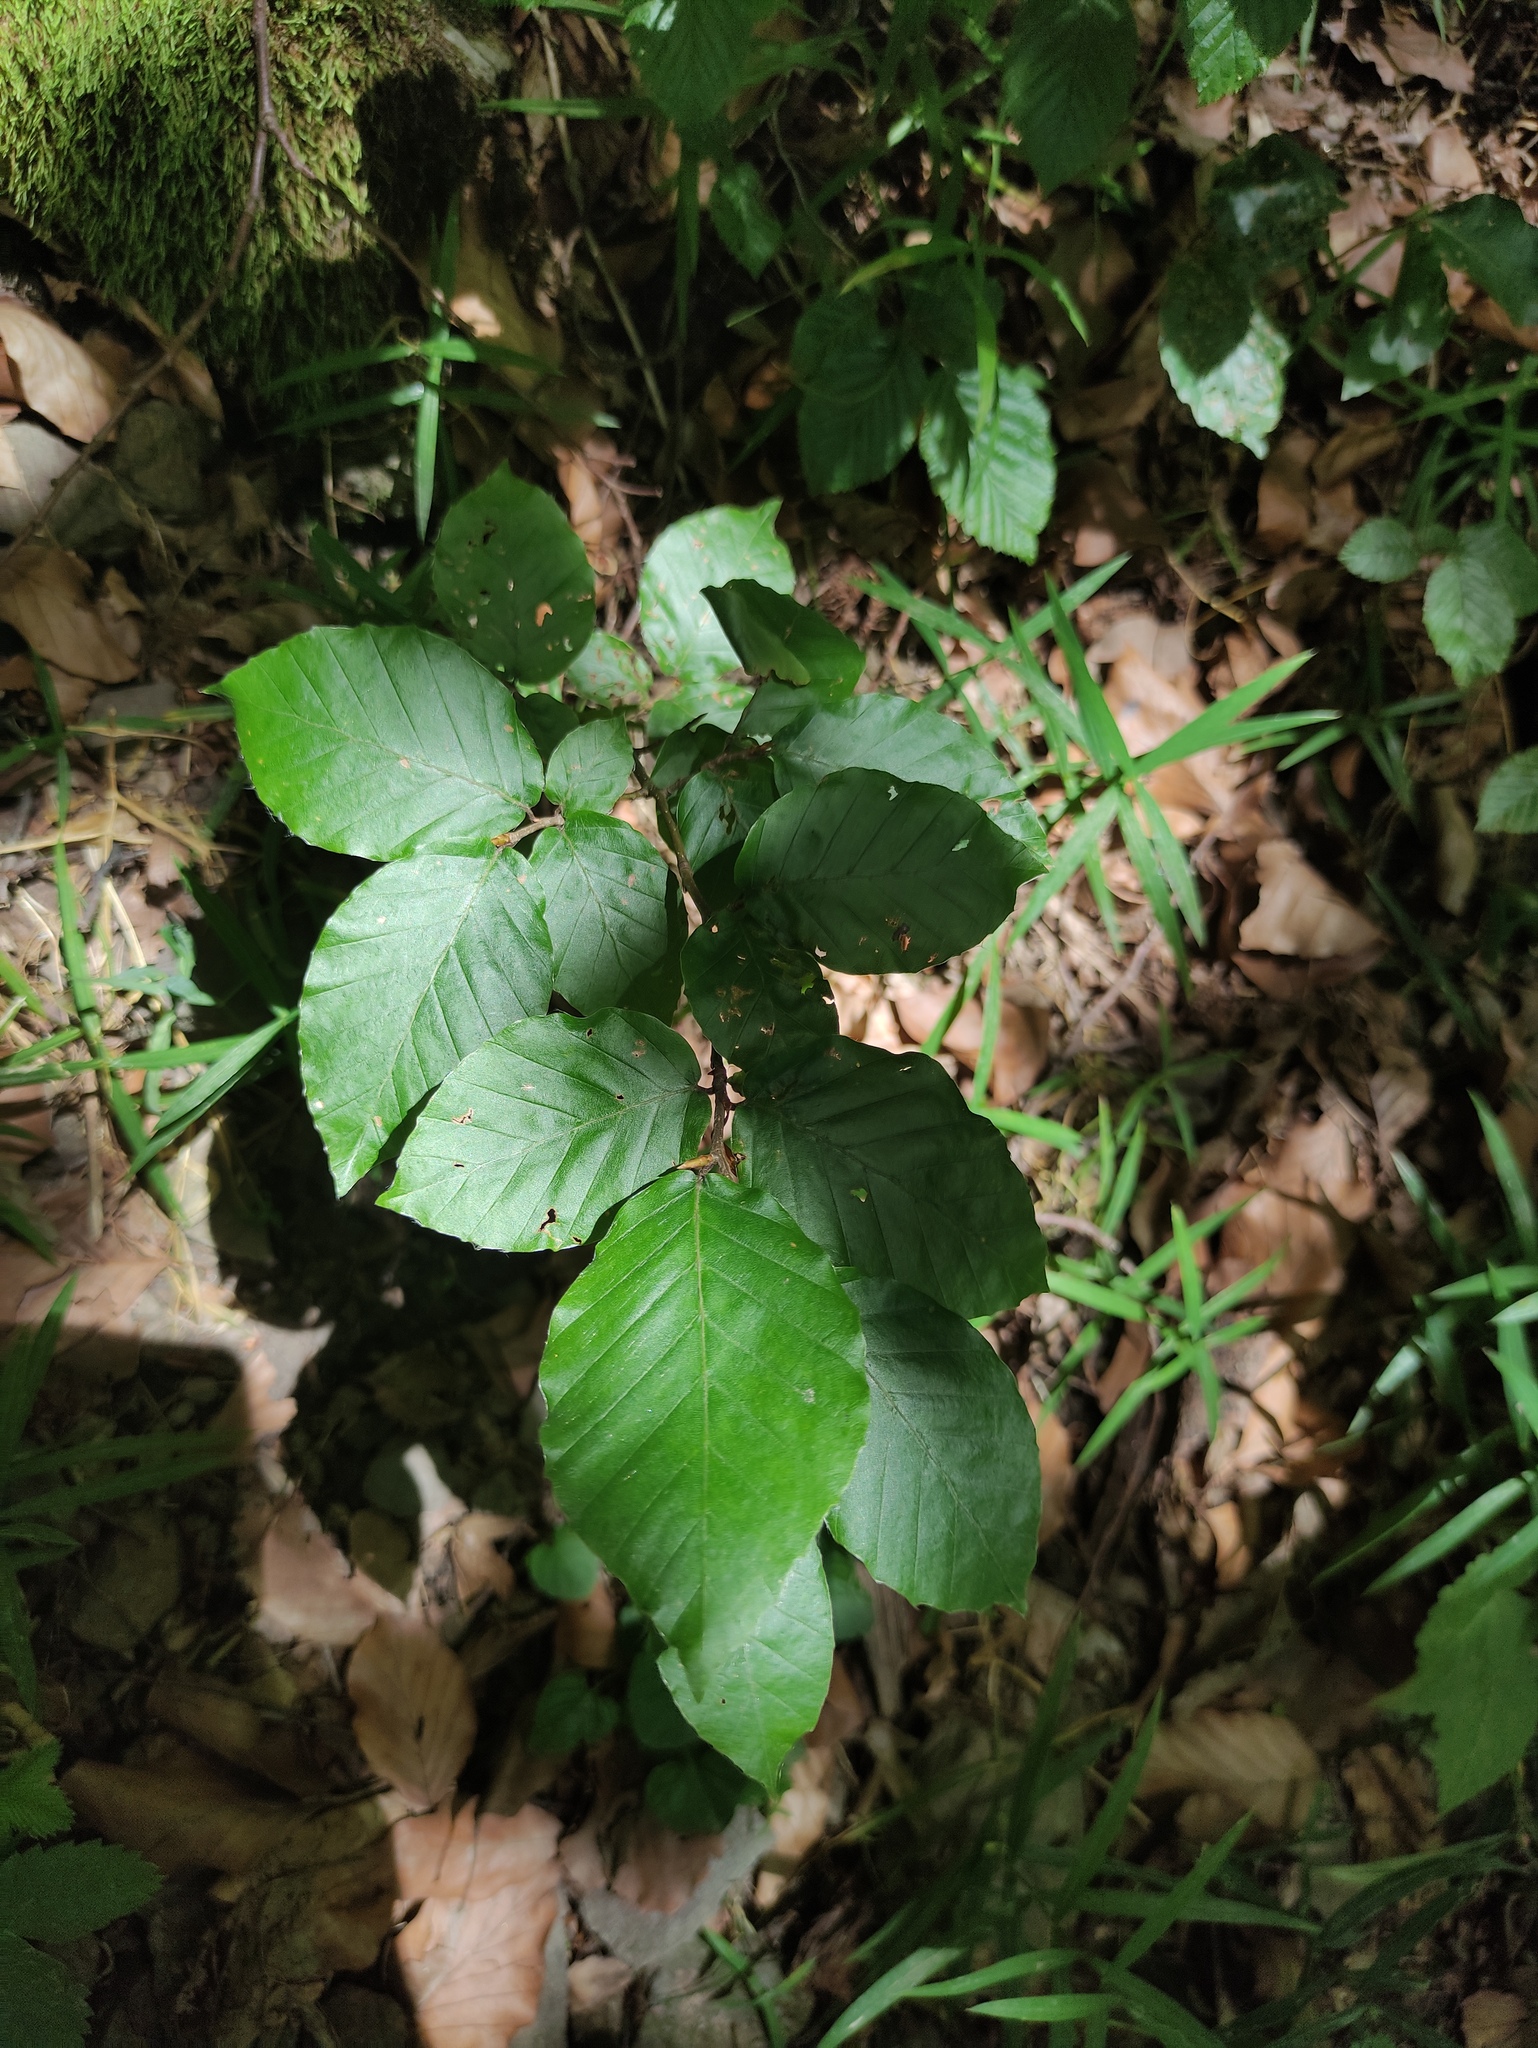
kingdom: Plantae
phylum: Tracheophyta
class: Magnoliopsida
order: Fagales
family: Fagaceae
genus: Fagus
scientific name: Fagus sylvatica
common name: Beech
